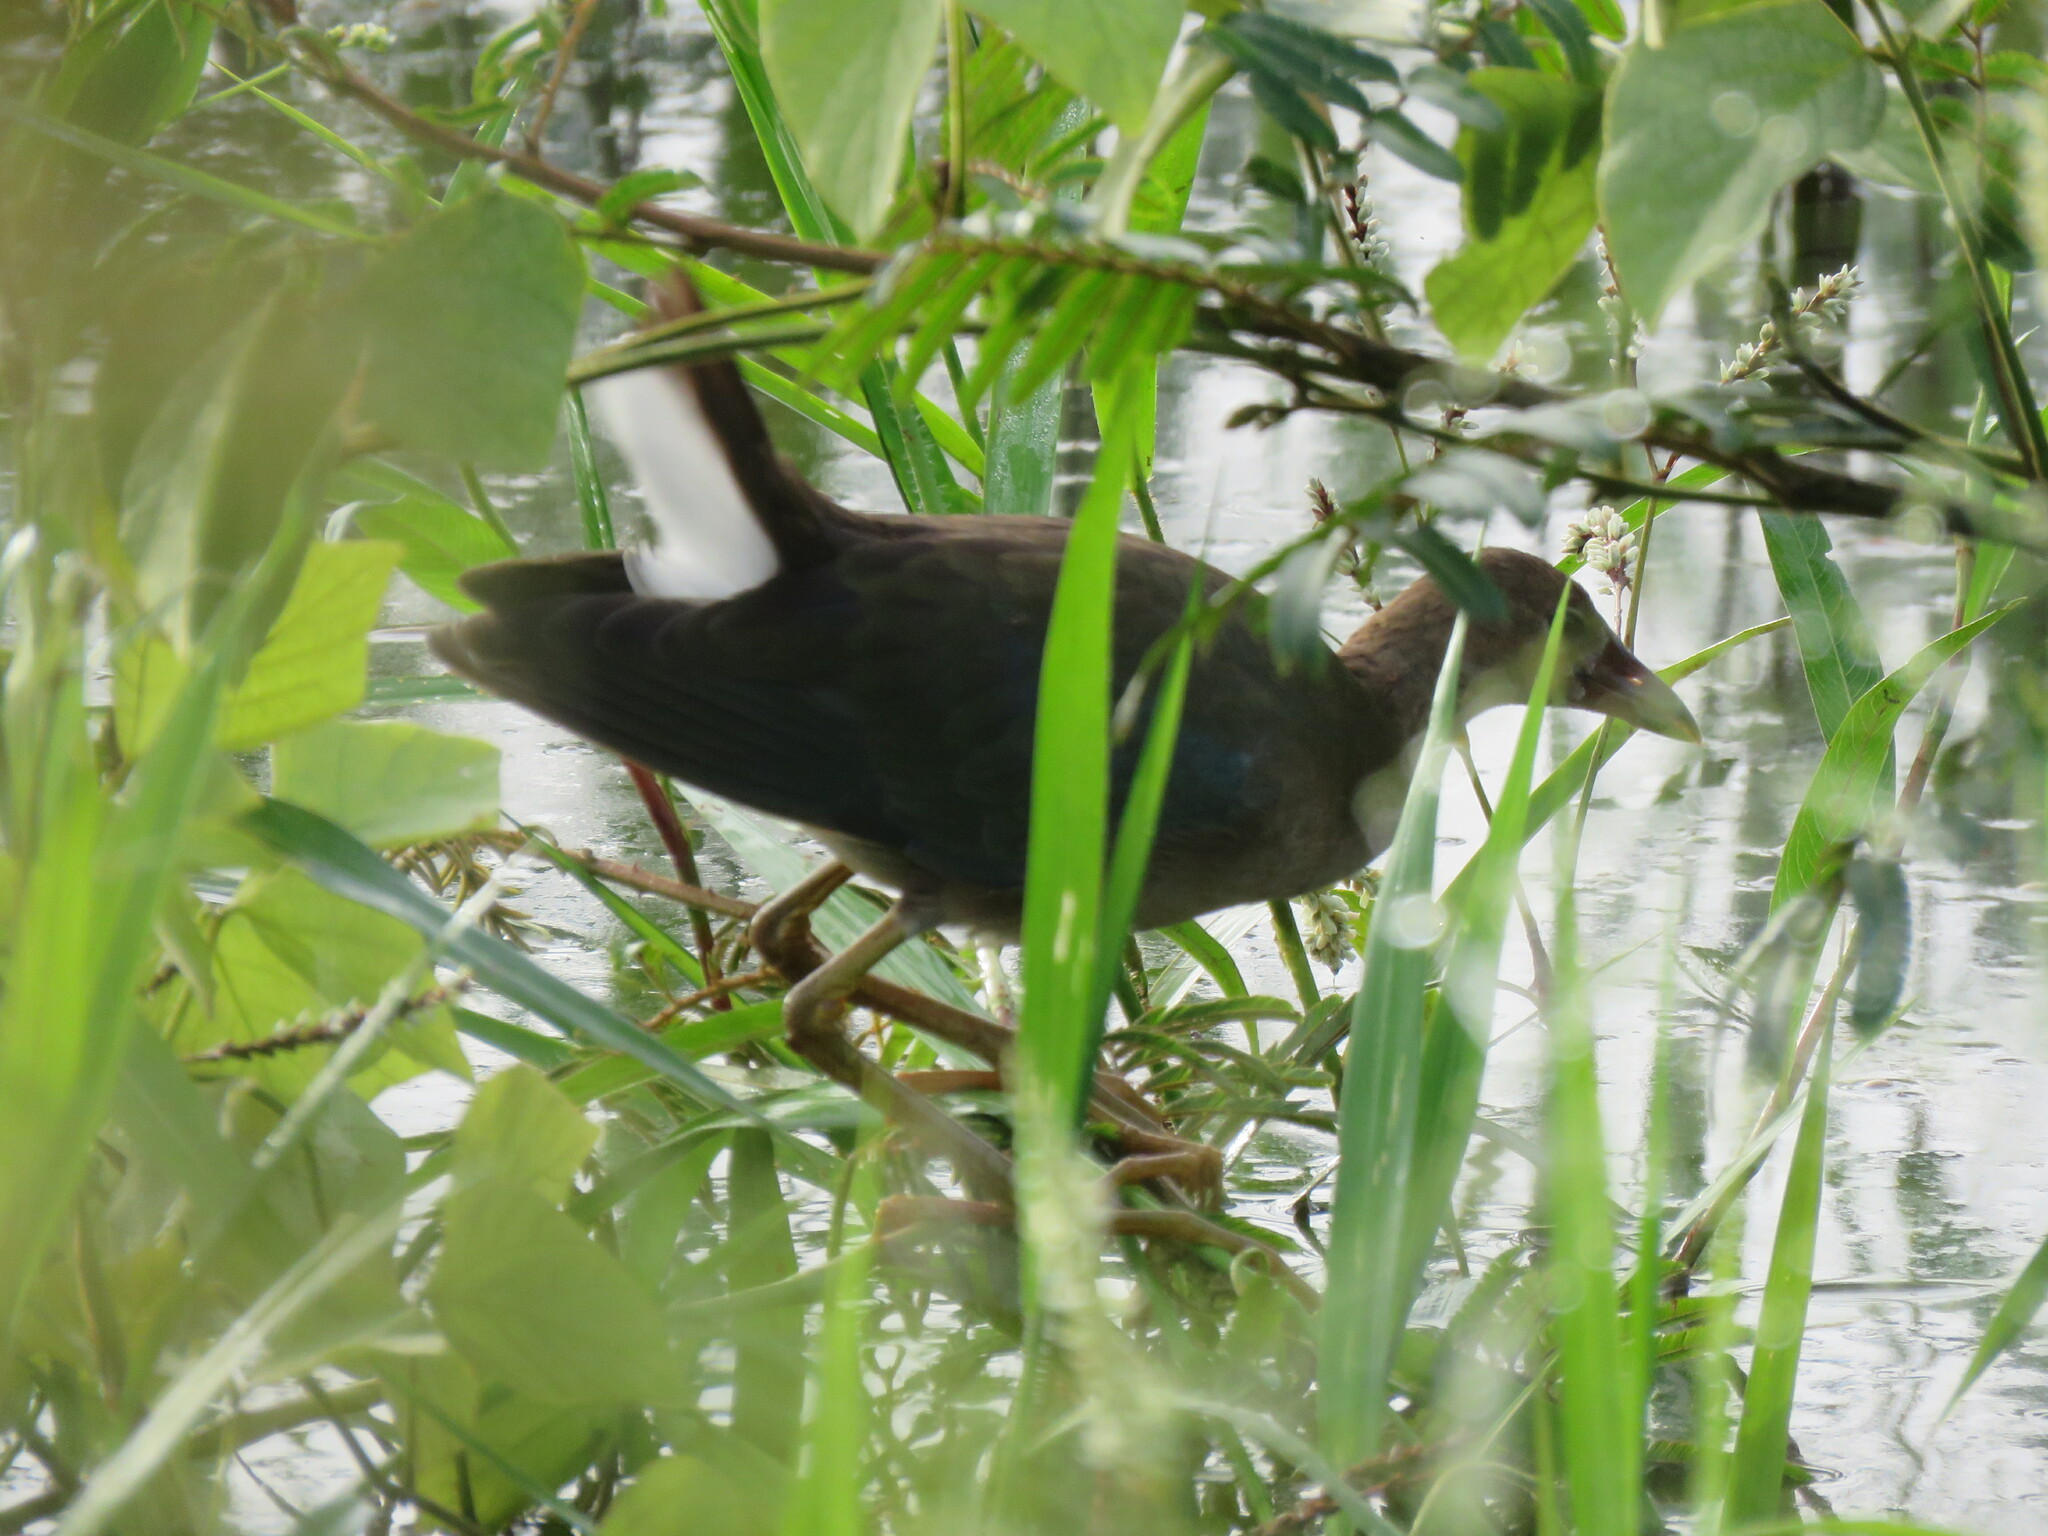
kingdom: Animalia
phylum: Chordata
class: Aves
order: Gruiformes
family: Rallidae
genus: Porphyrio
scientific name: Porphyrio martinica
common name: Purple gallinule
